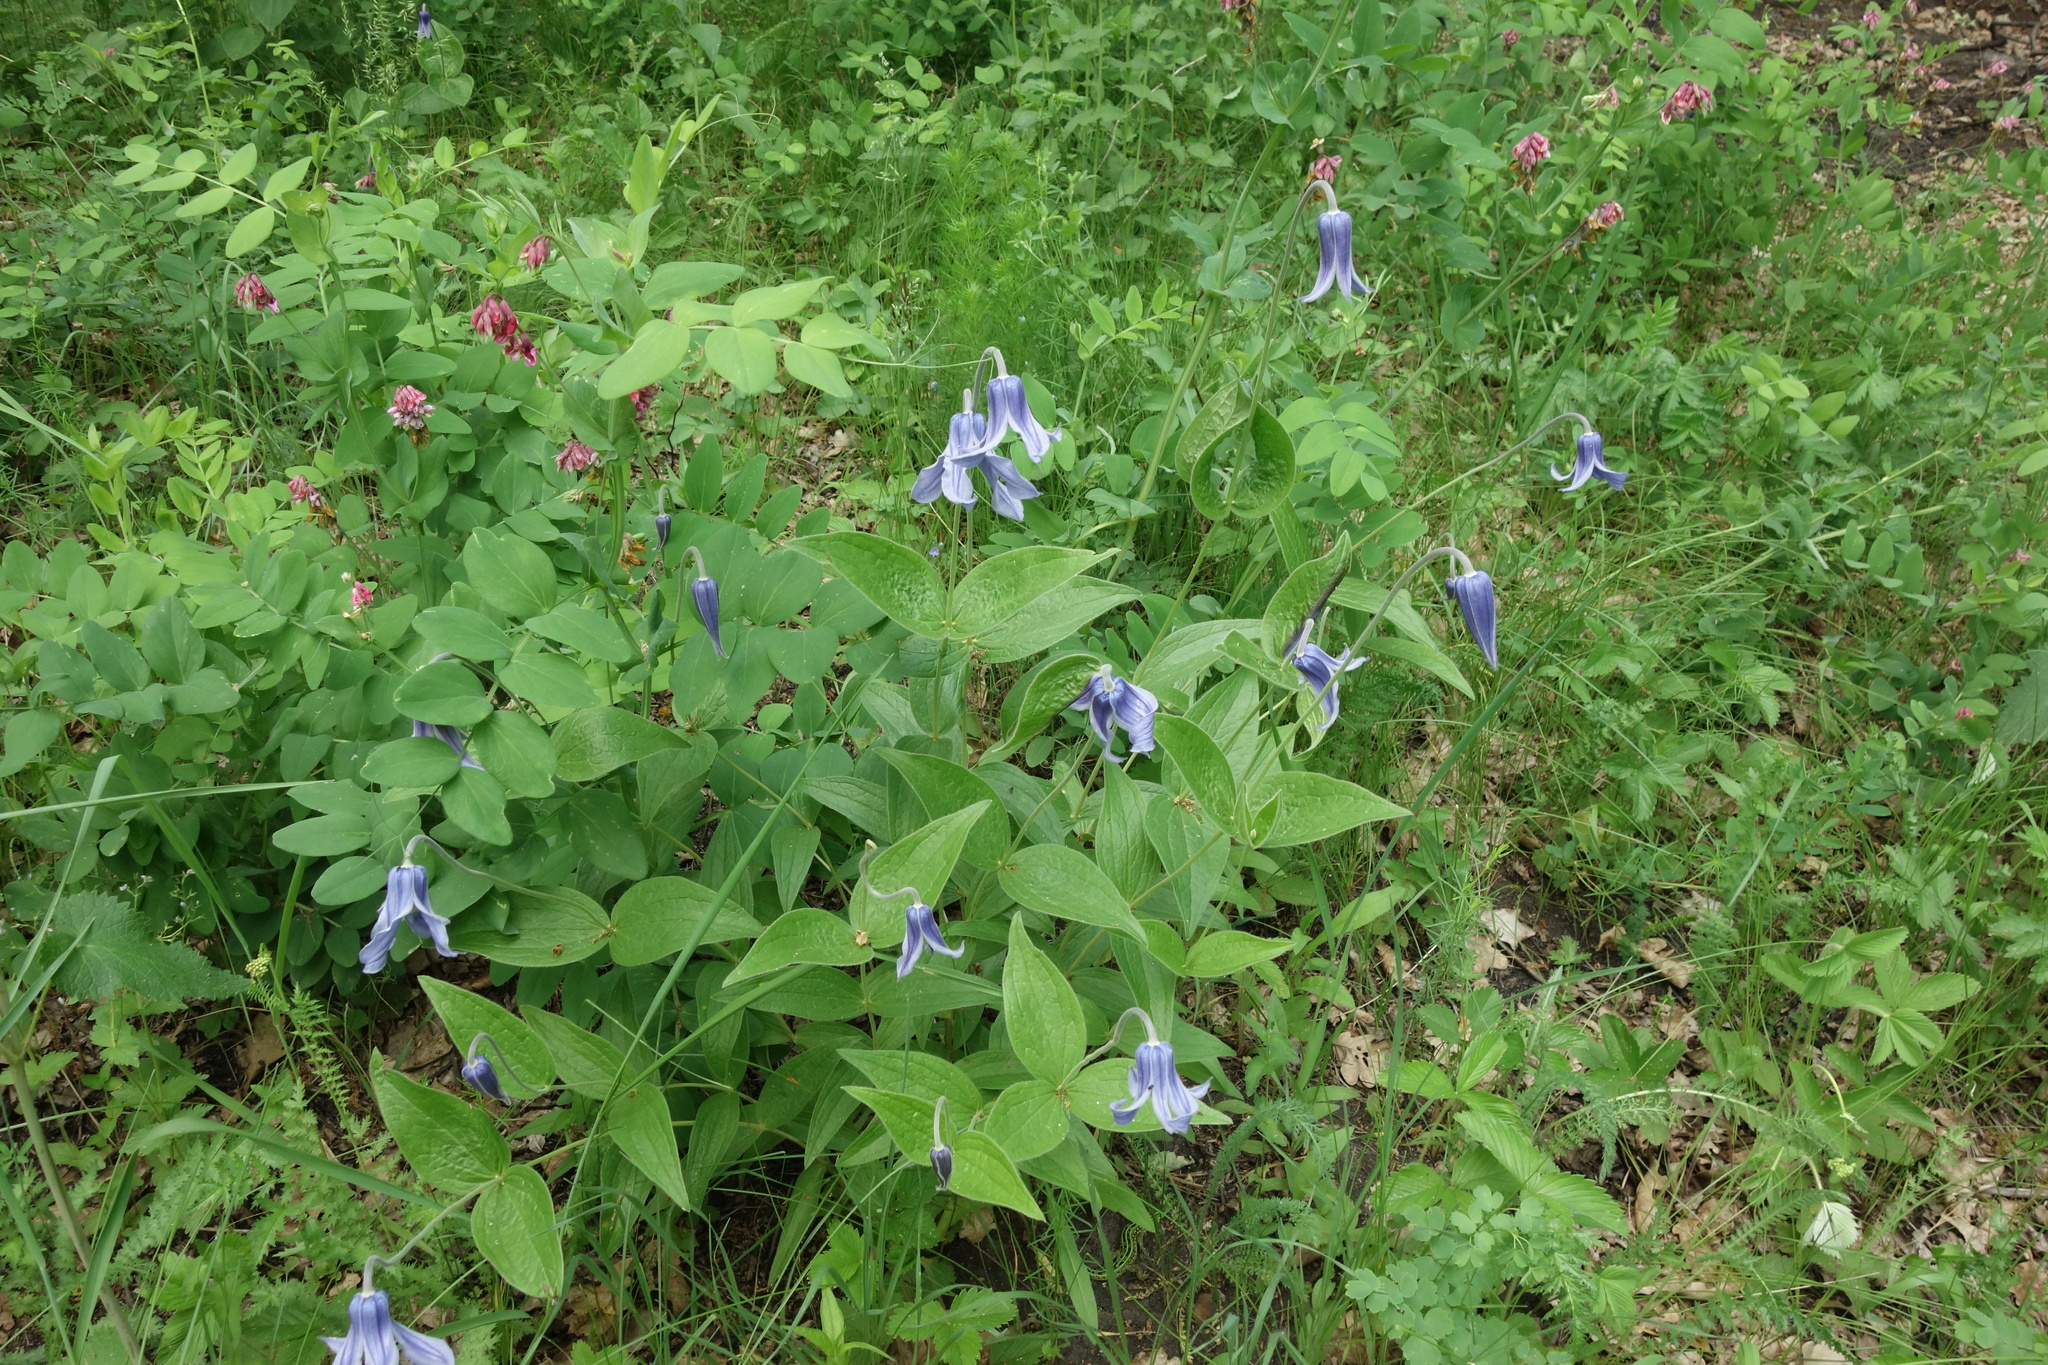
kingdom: Plantae
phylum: Tracheophyta
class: Magnoliopsida
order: Ranunculales
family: Ranunculaceae
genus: Clematis
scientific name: Clematis integrifolia
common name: Solitary clematis
